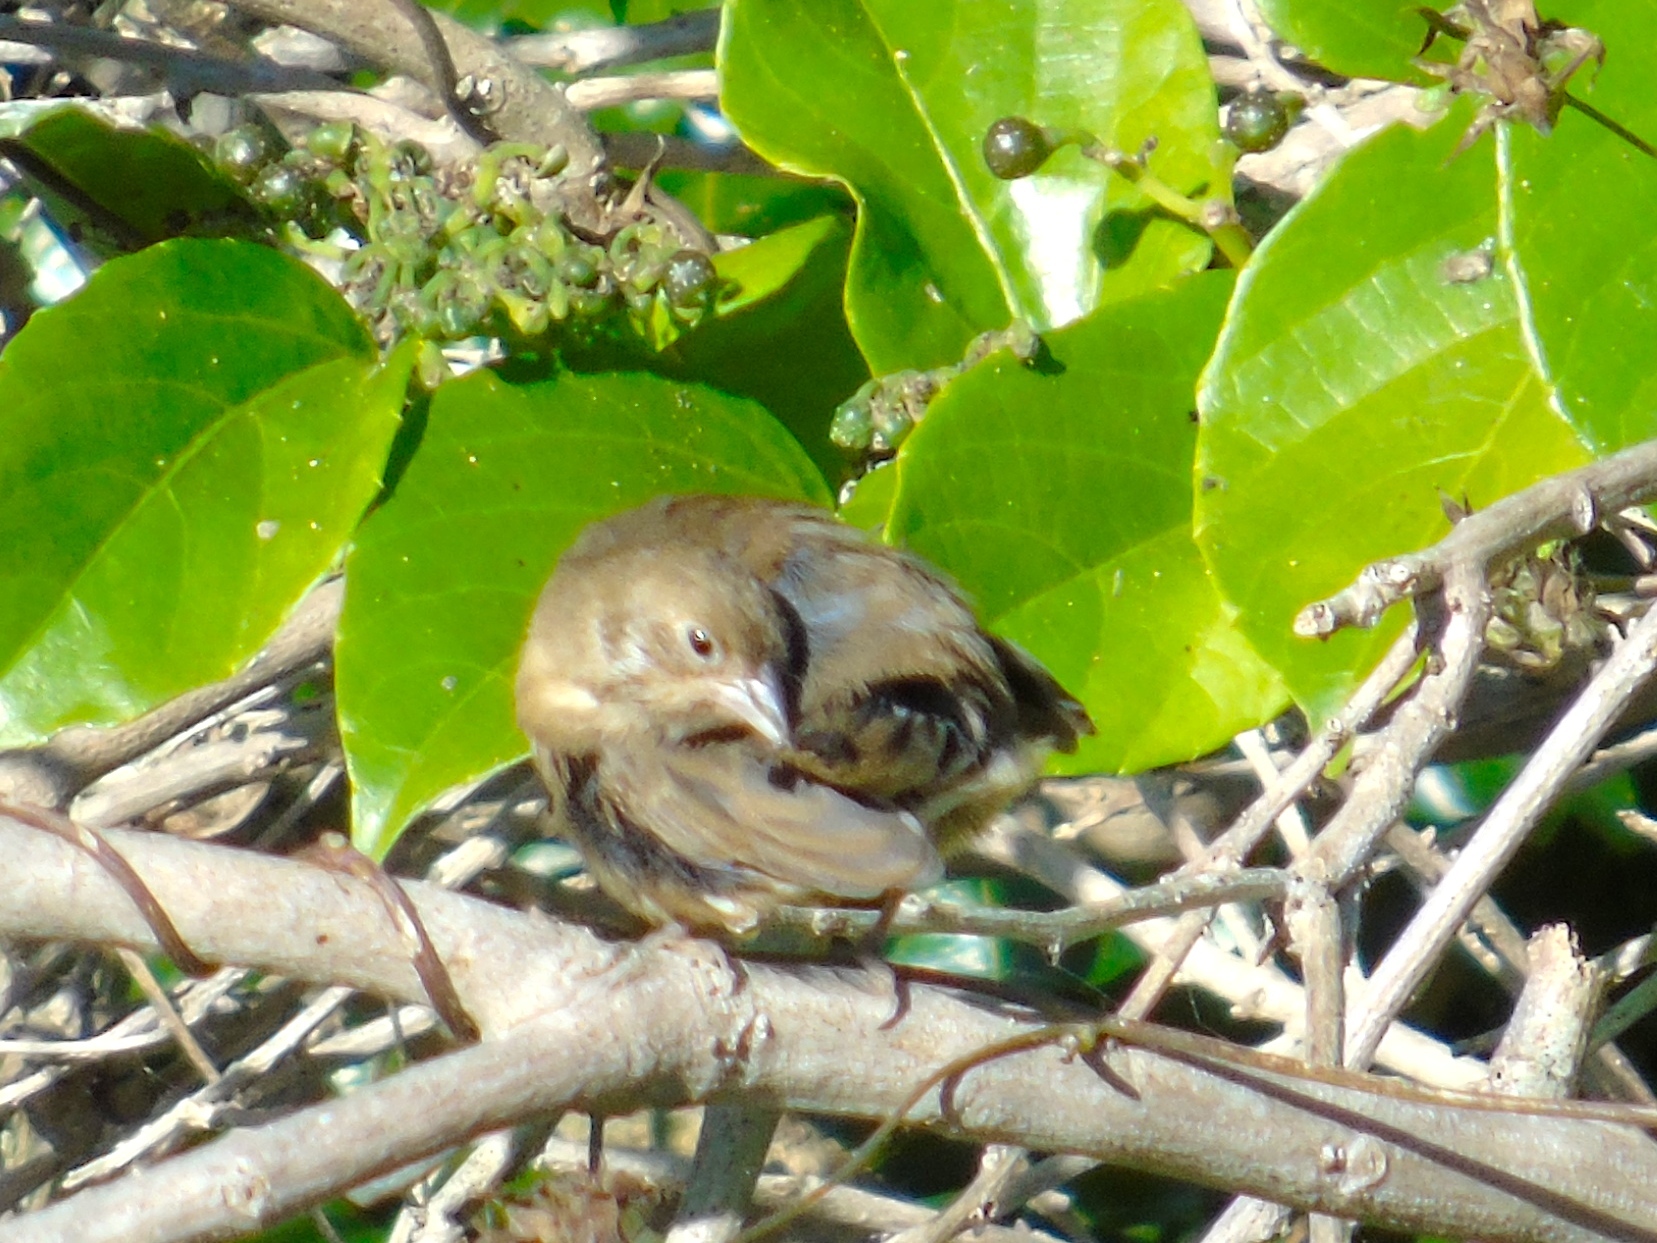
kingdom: Animalia
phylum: Chordata
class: Aves
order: Passeriformes
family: Cardinalidae
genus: Passerina
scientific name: Passerina
